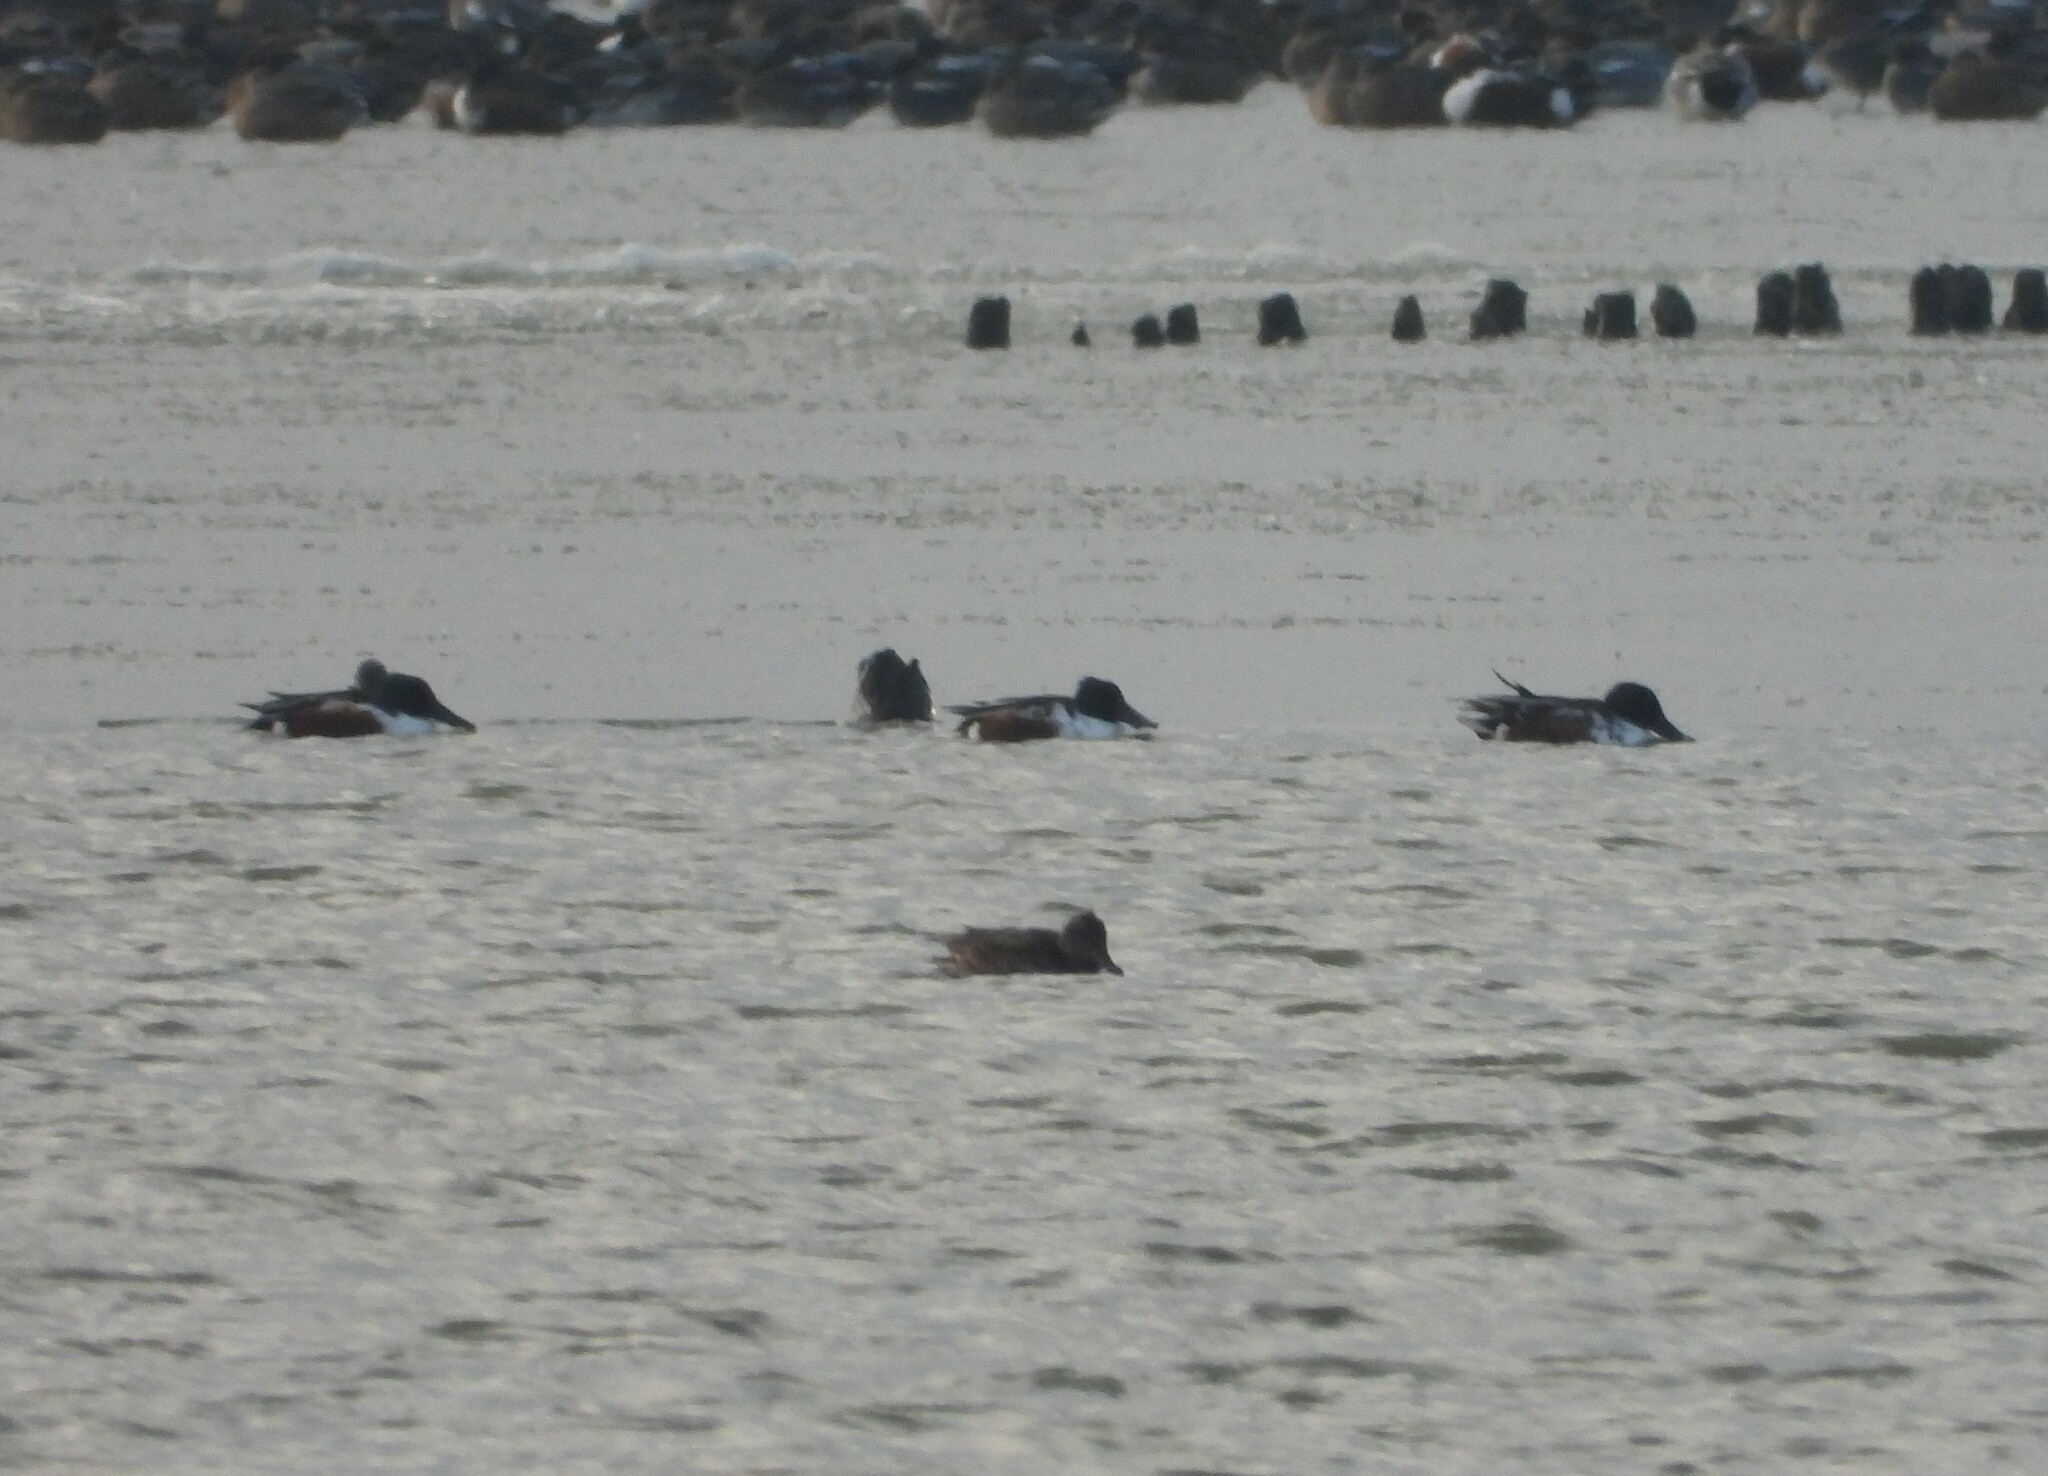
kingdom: Animalia
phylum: Chordata
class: Aves
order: Anseriformes
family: Anatidae
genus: Spatula
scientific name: Spatula clypeata
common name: Northern shoveler
